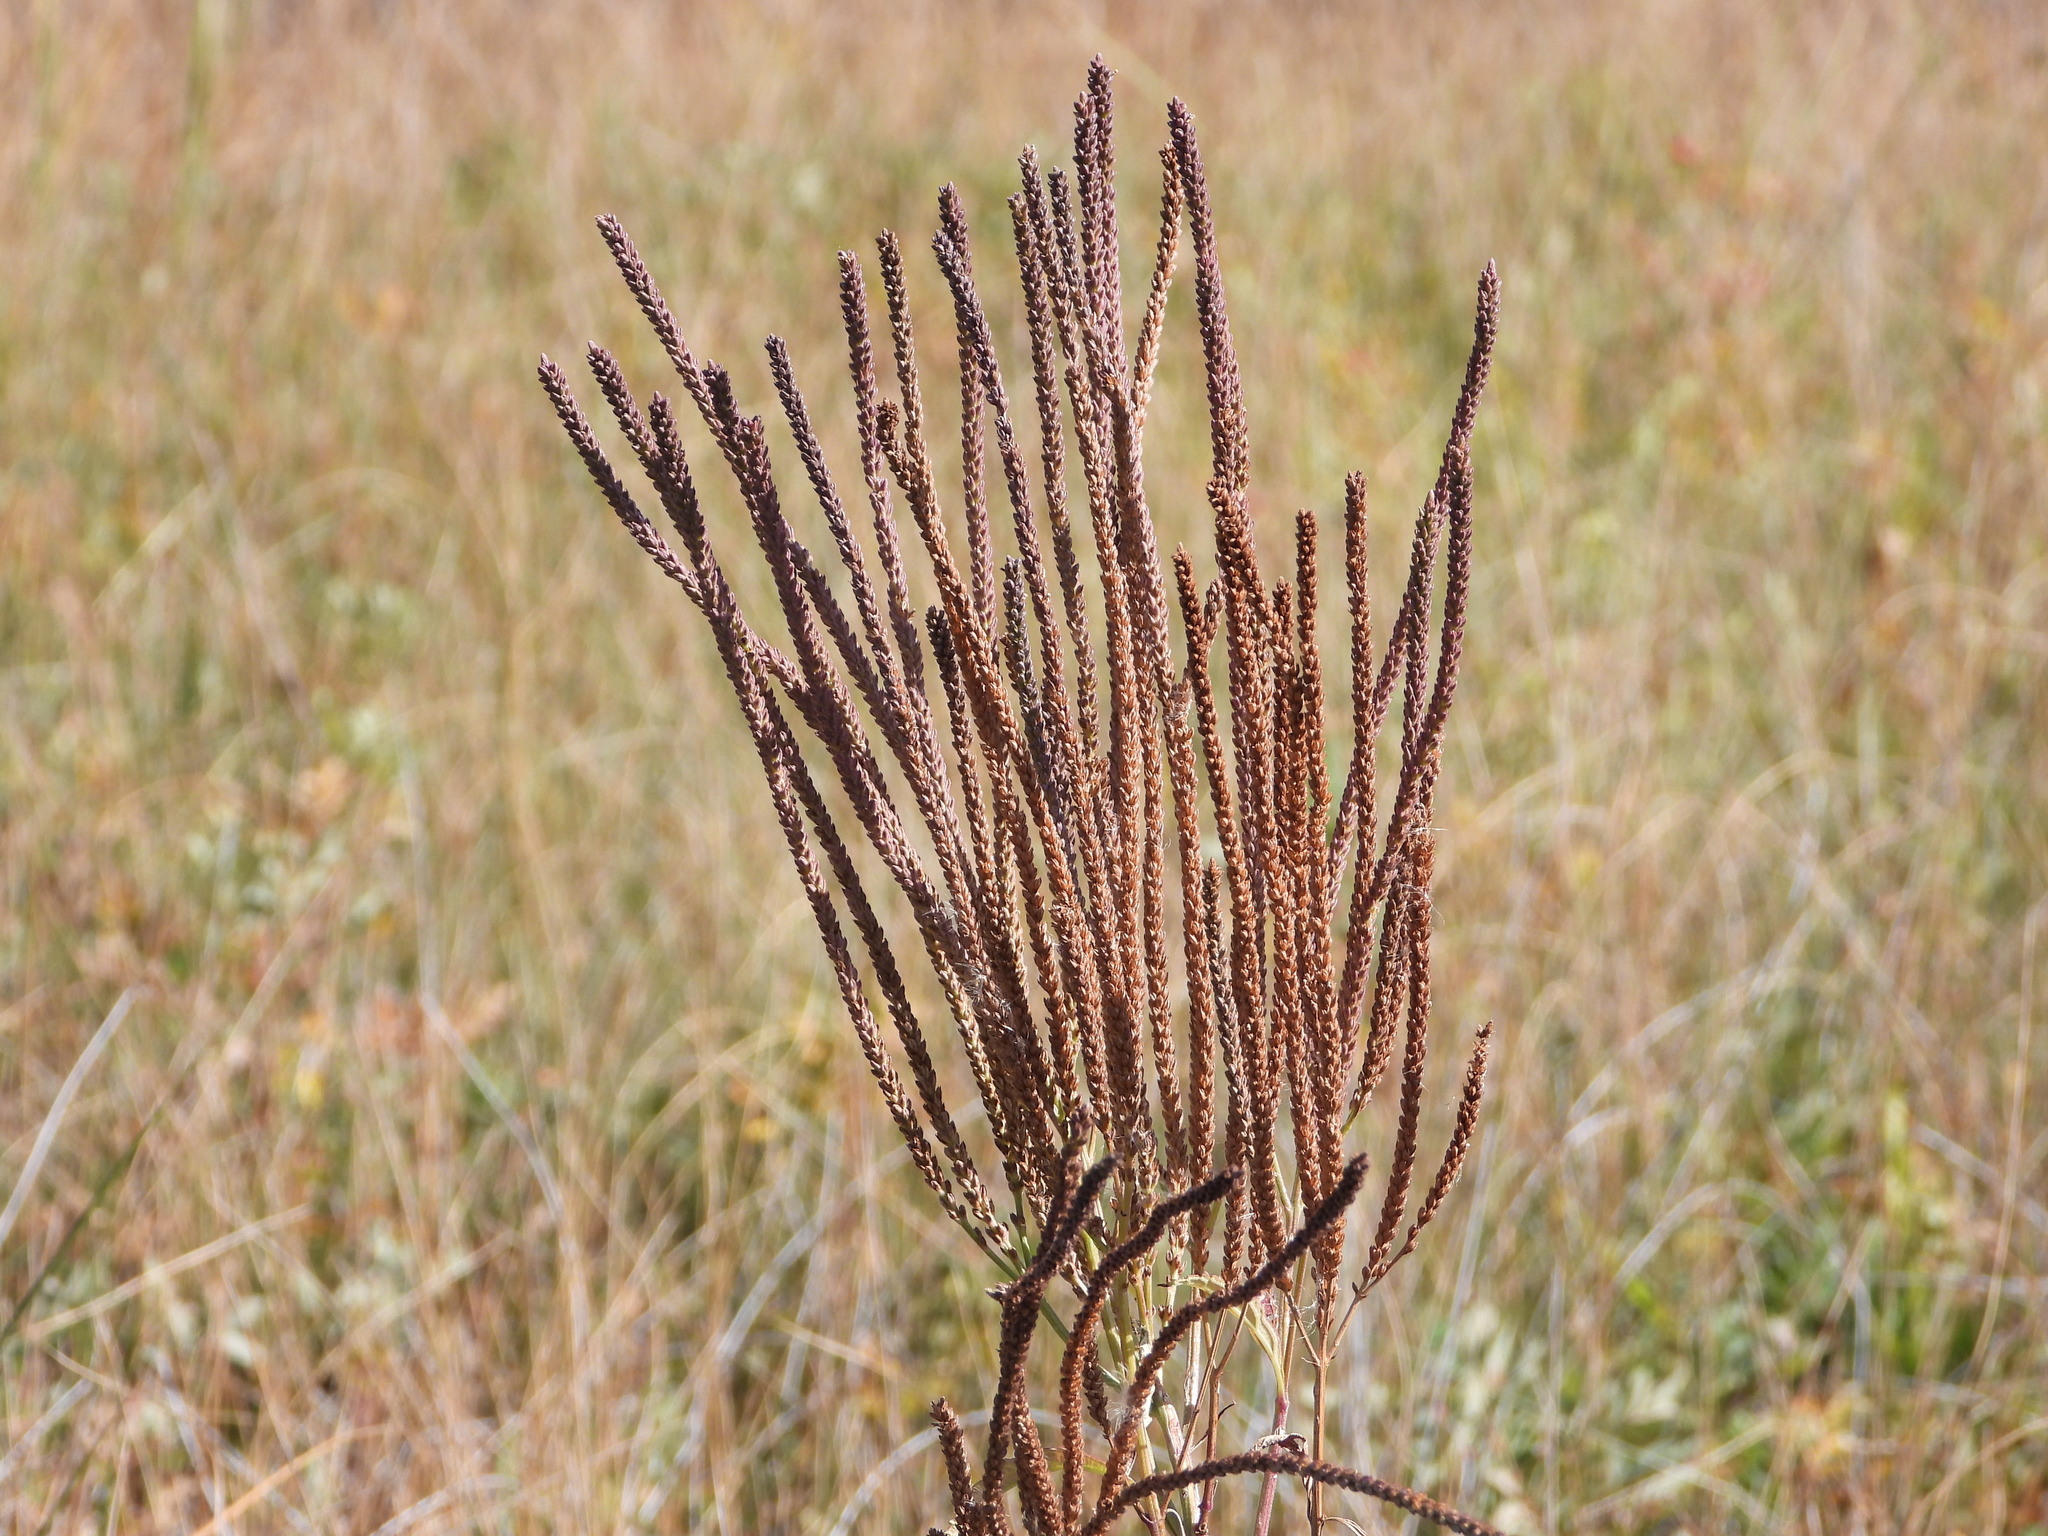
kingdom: Plantae
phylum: Tracheophyta
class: Magnoliopsida
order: Lamiales
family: Verbenaceae
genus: Verbena
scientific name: Verbena hastata
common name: American blue vervain
